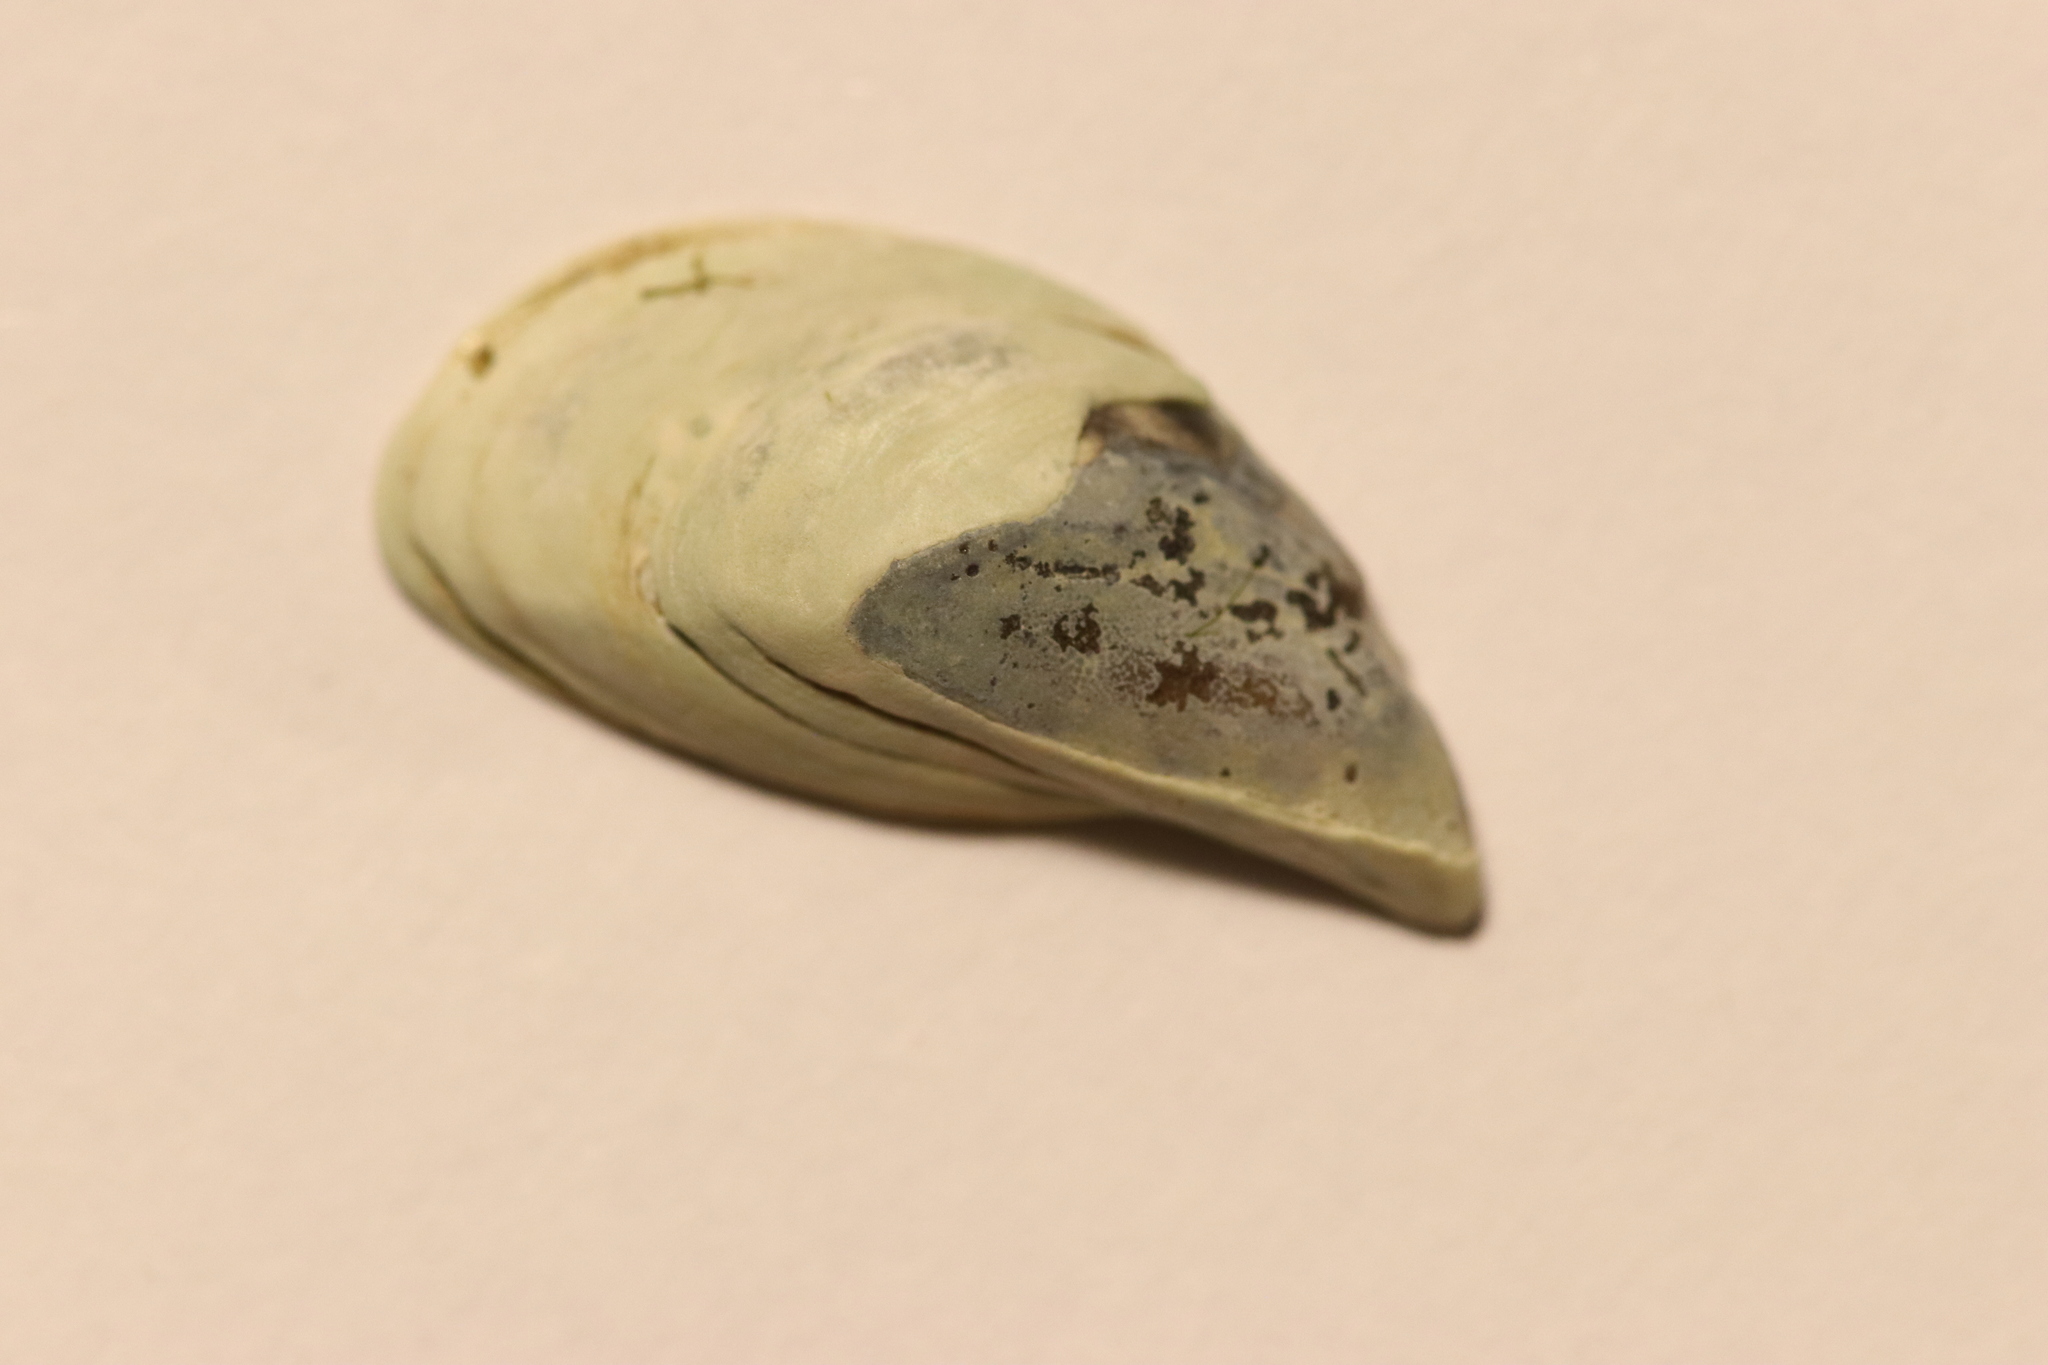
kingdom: Animalia
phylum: Mollusca
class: Bivalvia
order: Myida
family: Dreissenidae
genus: Dreissena
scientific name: Dreissena bugensis
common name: Quagga mussel
